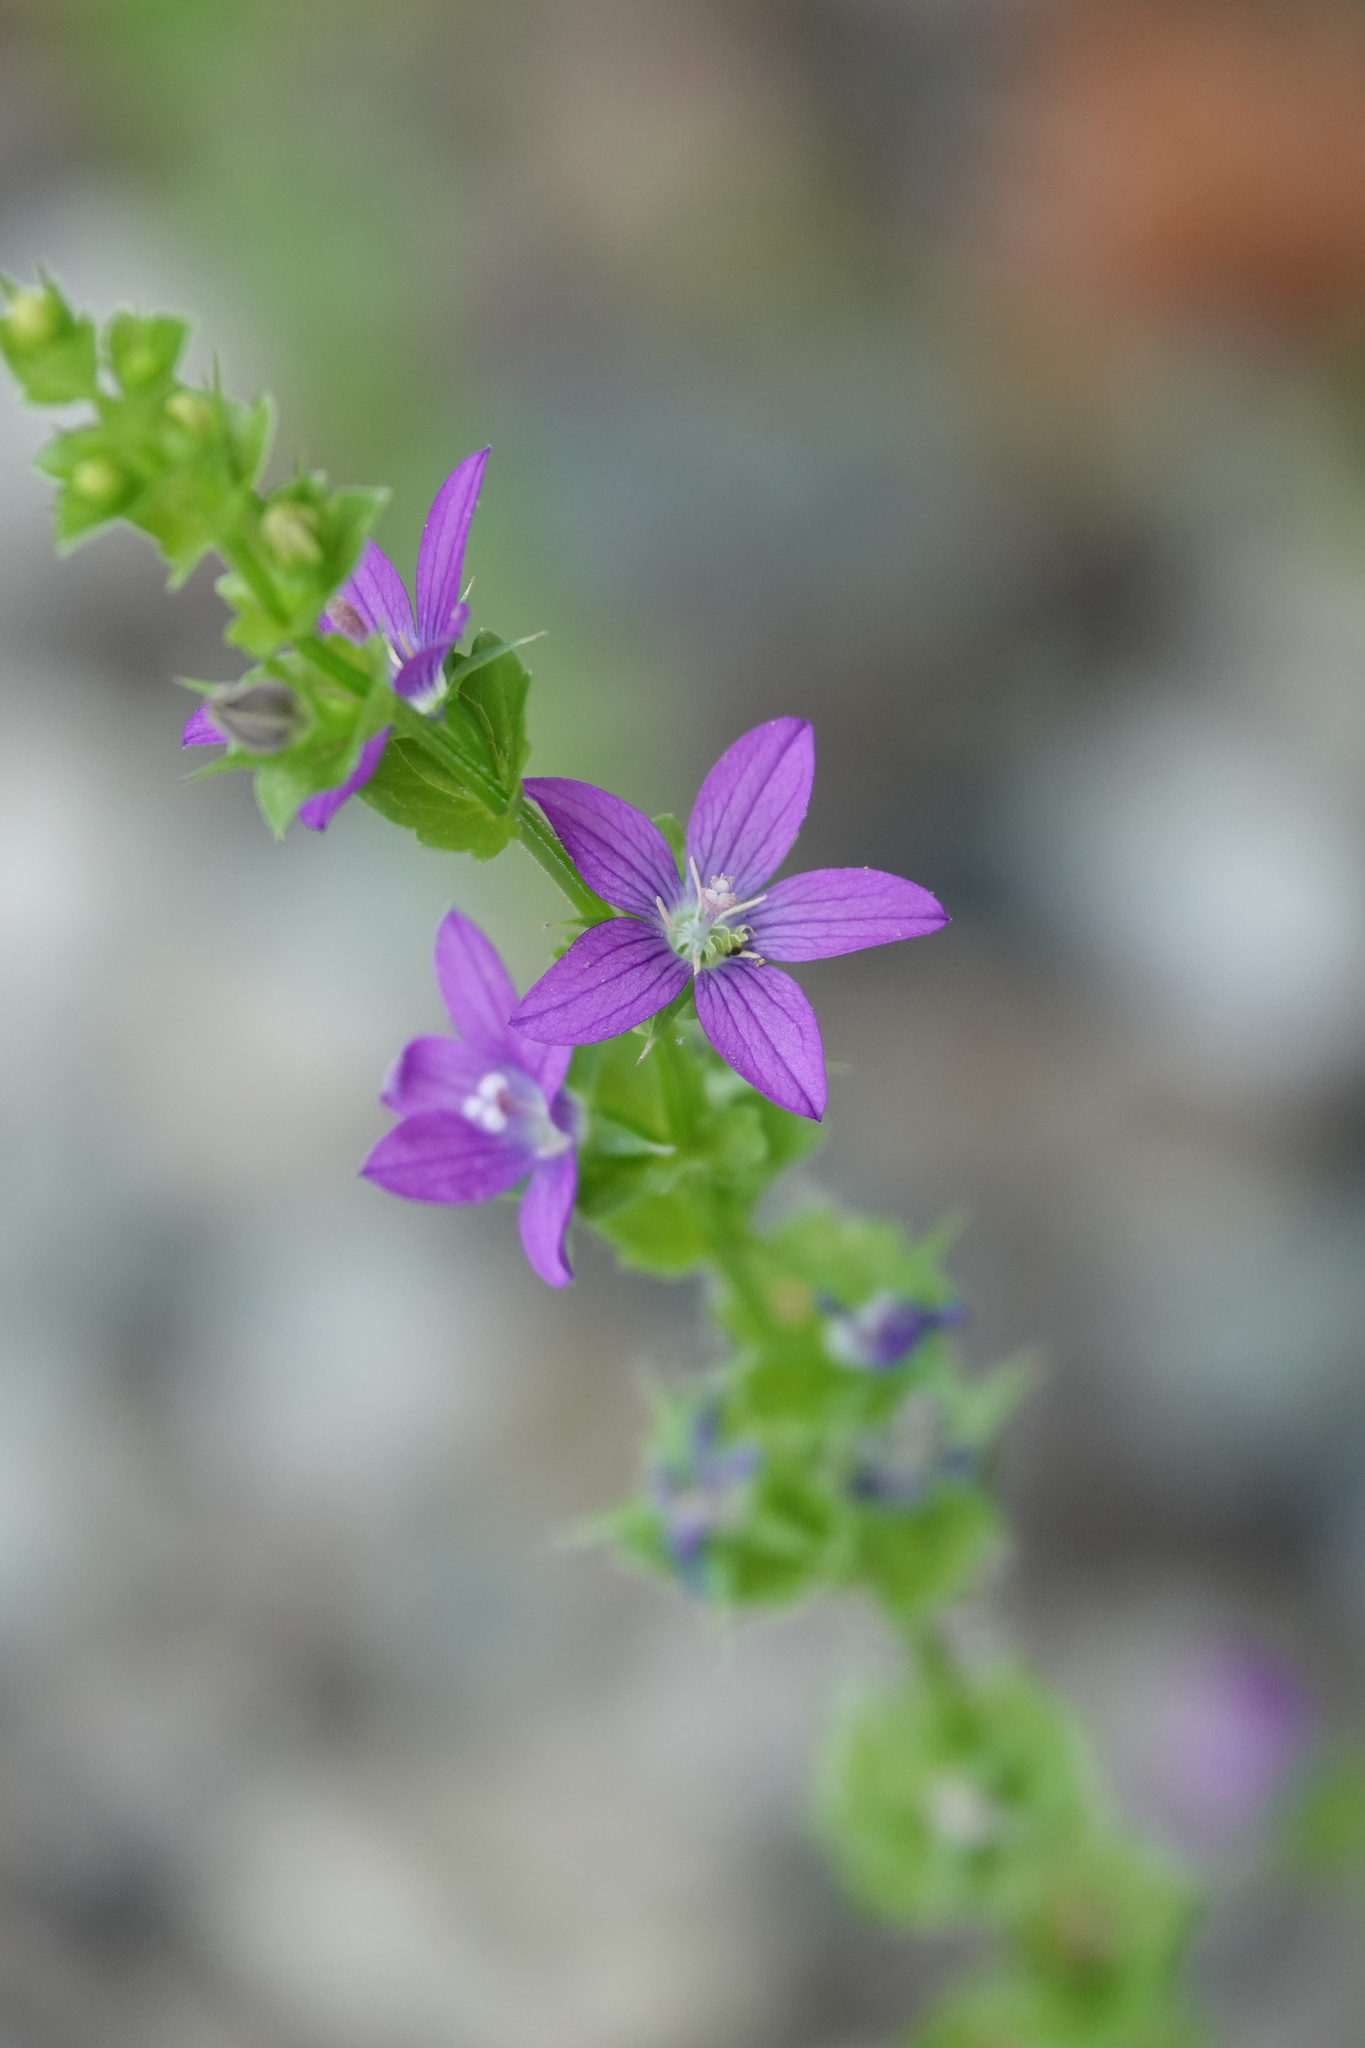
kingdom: Plantae
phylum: Tracheophyta
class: Magnoliopsida
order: Asterales
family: Campanulaceae
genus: Triodanis
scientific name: Triodanis perfoliata
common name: Clasping venus' looking-glass
